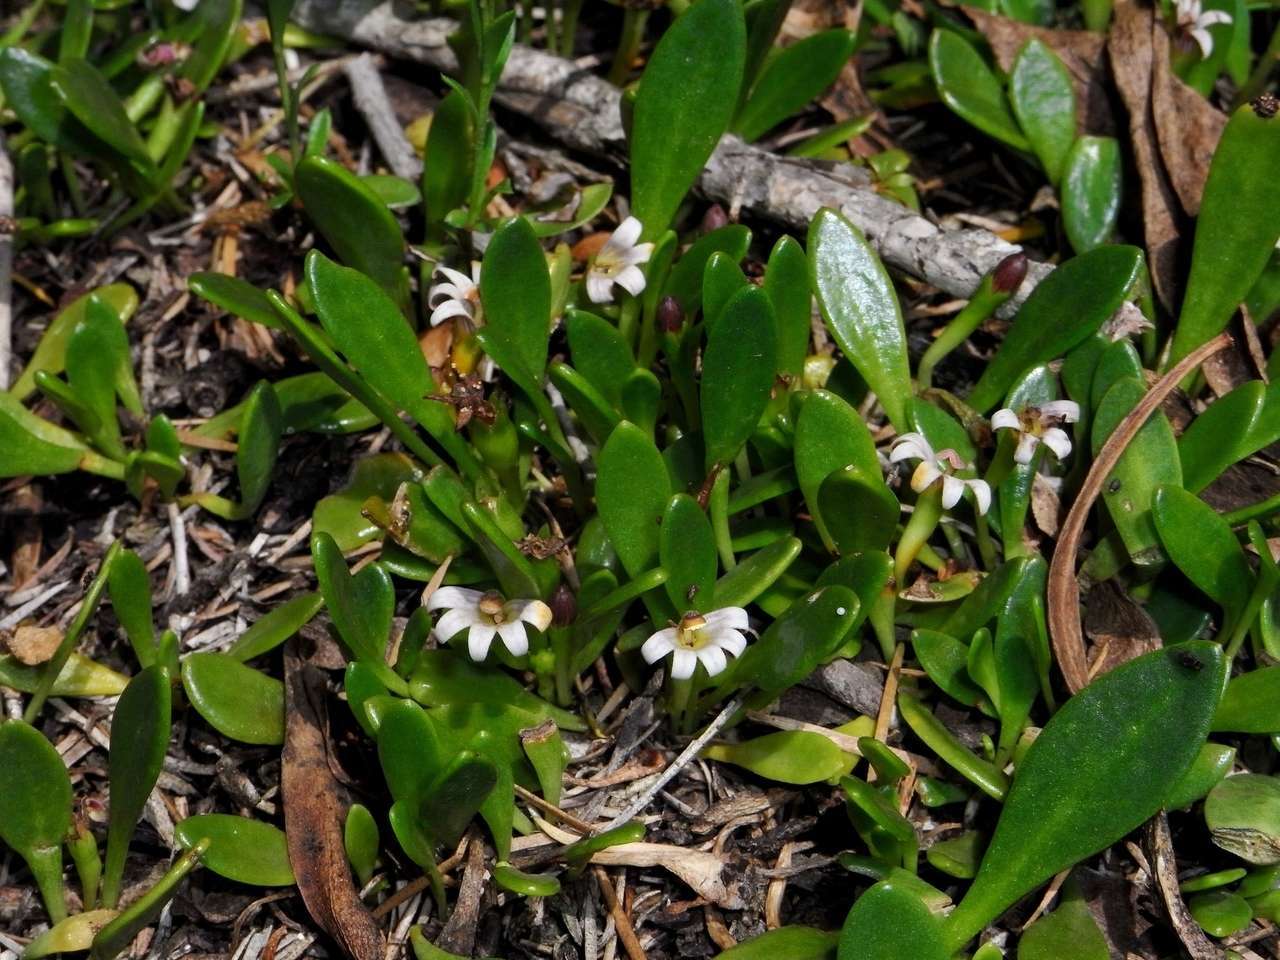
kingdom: Plantae
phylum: Tracheophyta
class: Magnoliopsida
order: Asterales
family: Goodeniaceae
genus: Goodenia
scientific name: Goodenia radicans
